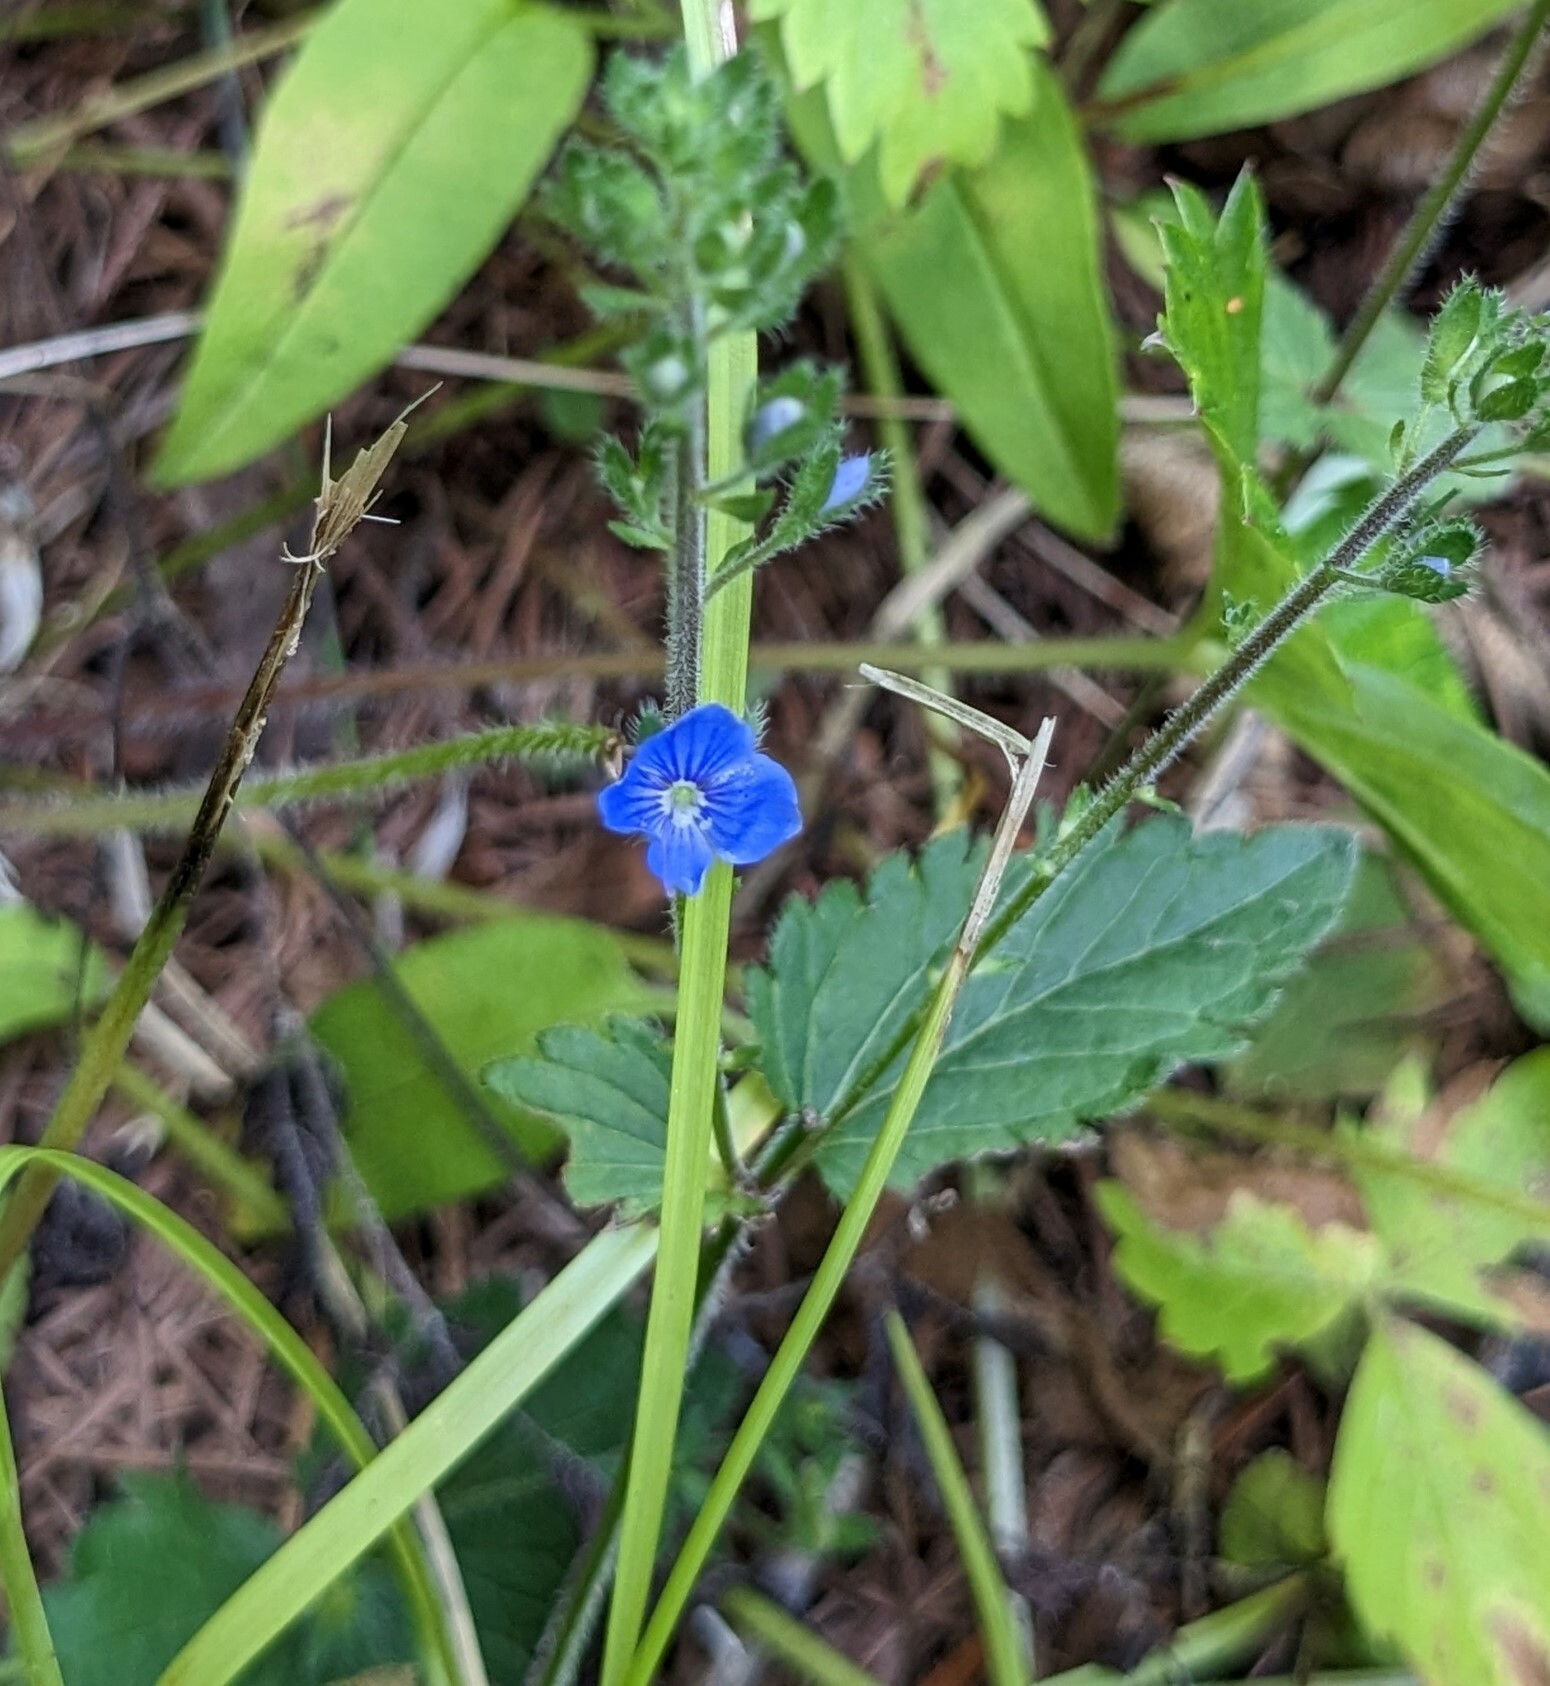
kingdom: Plantae
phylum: Tracheophyta
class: Magnoliopsida
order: Lamiales
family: Plantaginaceae
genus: Veronica
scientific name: Veronica chamaedrys
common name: Germander speedwell
